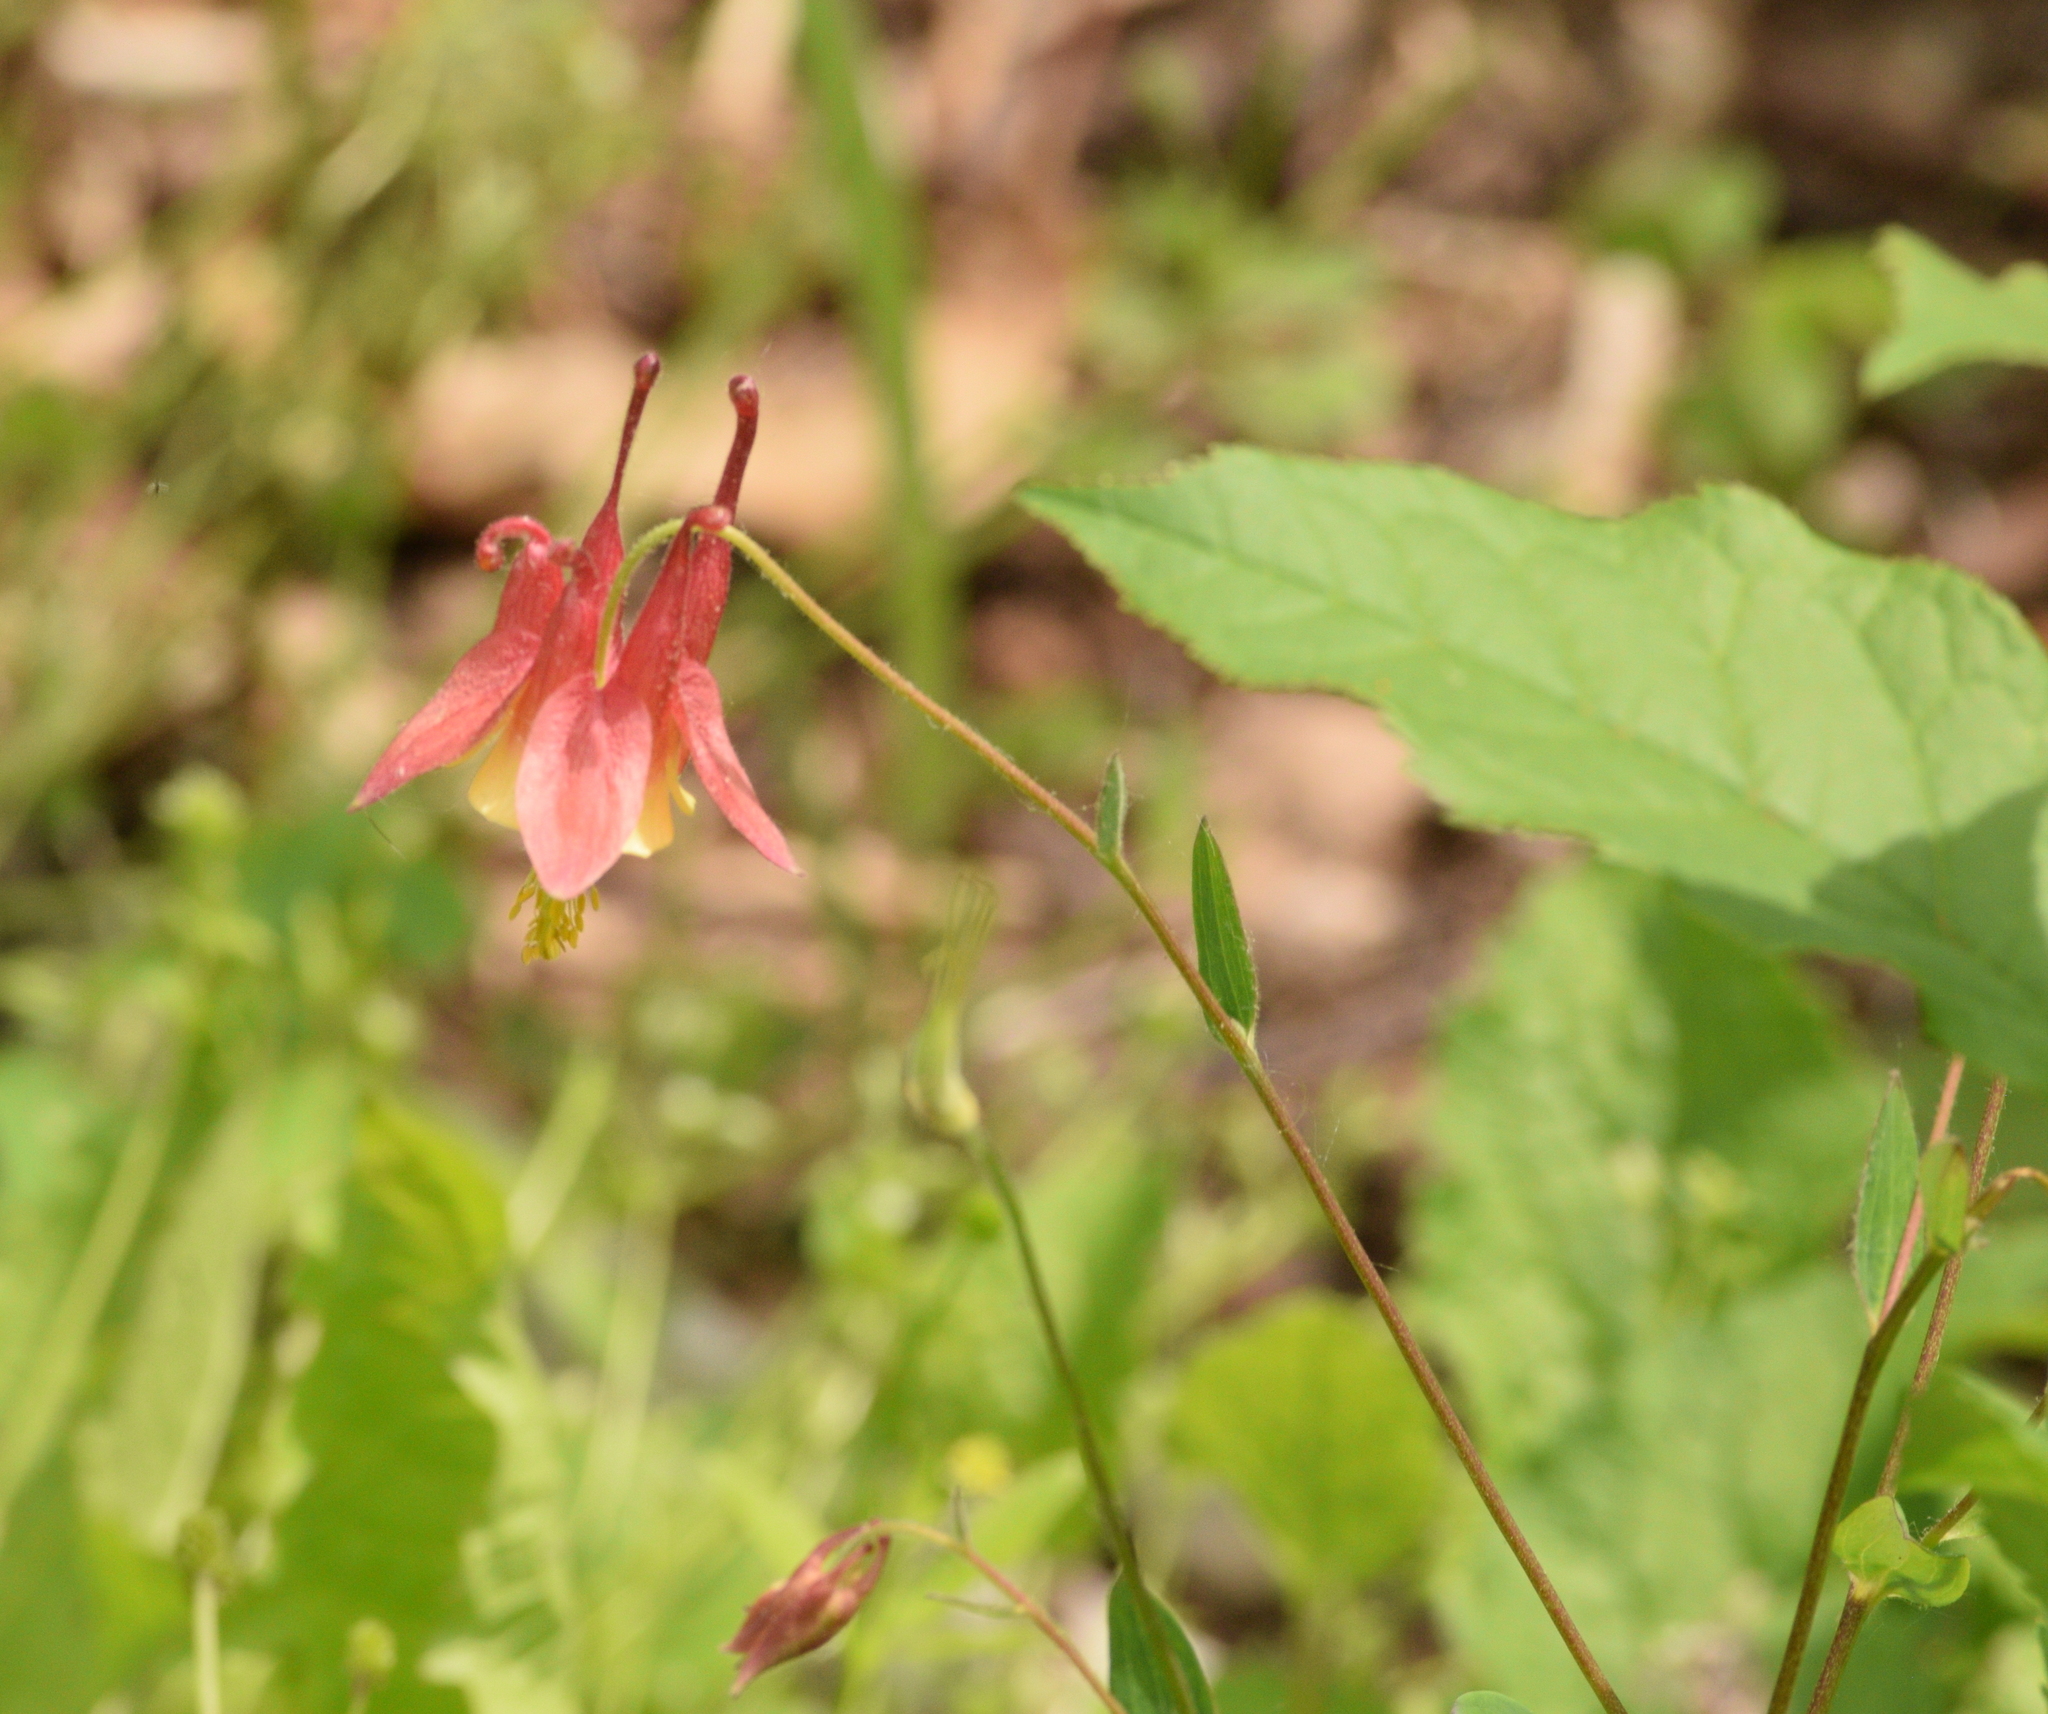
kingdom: Plantae
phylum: Tracheophyta
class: Magnoliopsida
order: Ranunculales
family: Ranunculaceae
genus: Aquilegia
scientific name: Aquilegia canadensis
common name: American columbine
